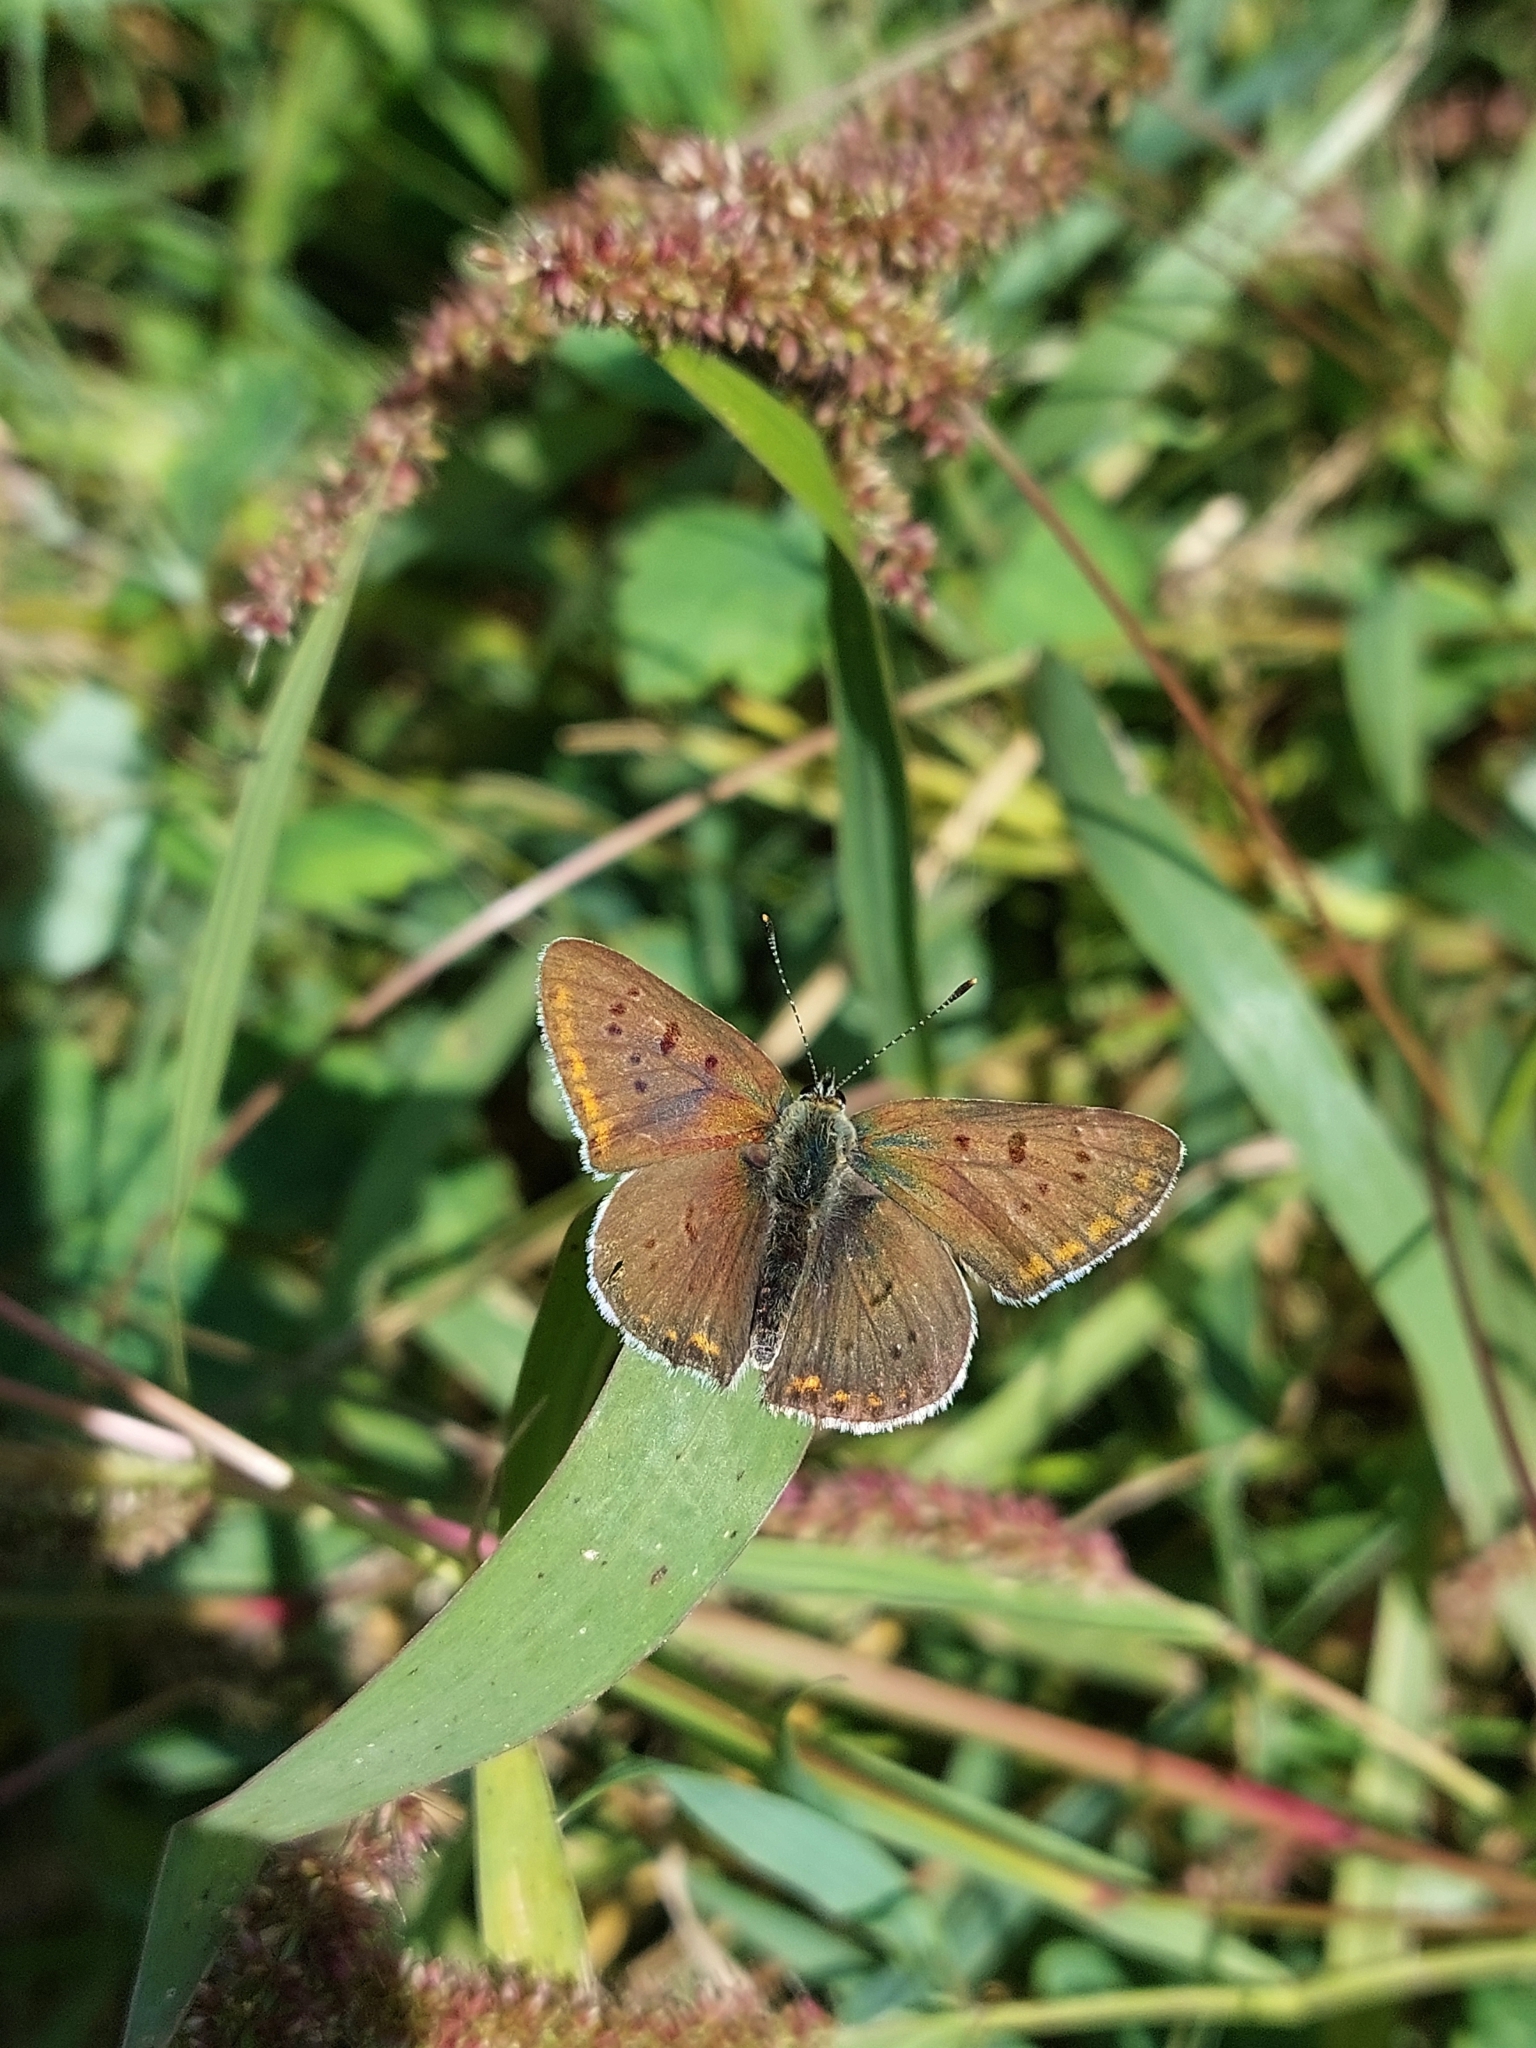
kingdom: Animalia
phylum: Arthropoda
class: Insecta
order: Lepidoptera
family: Lycaenidae
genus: Loweia
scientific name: Loweia tityrus
